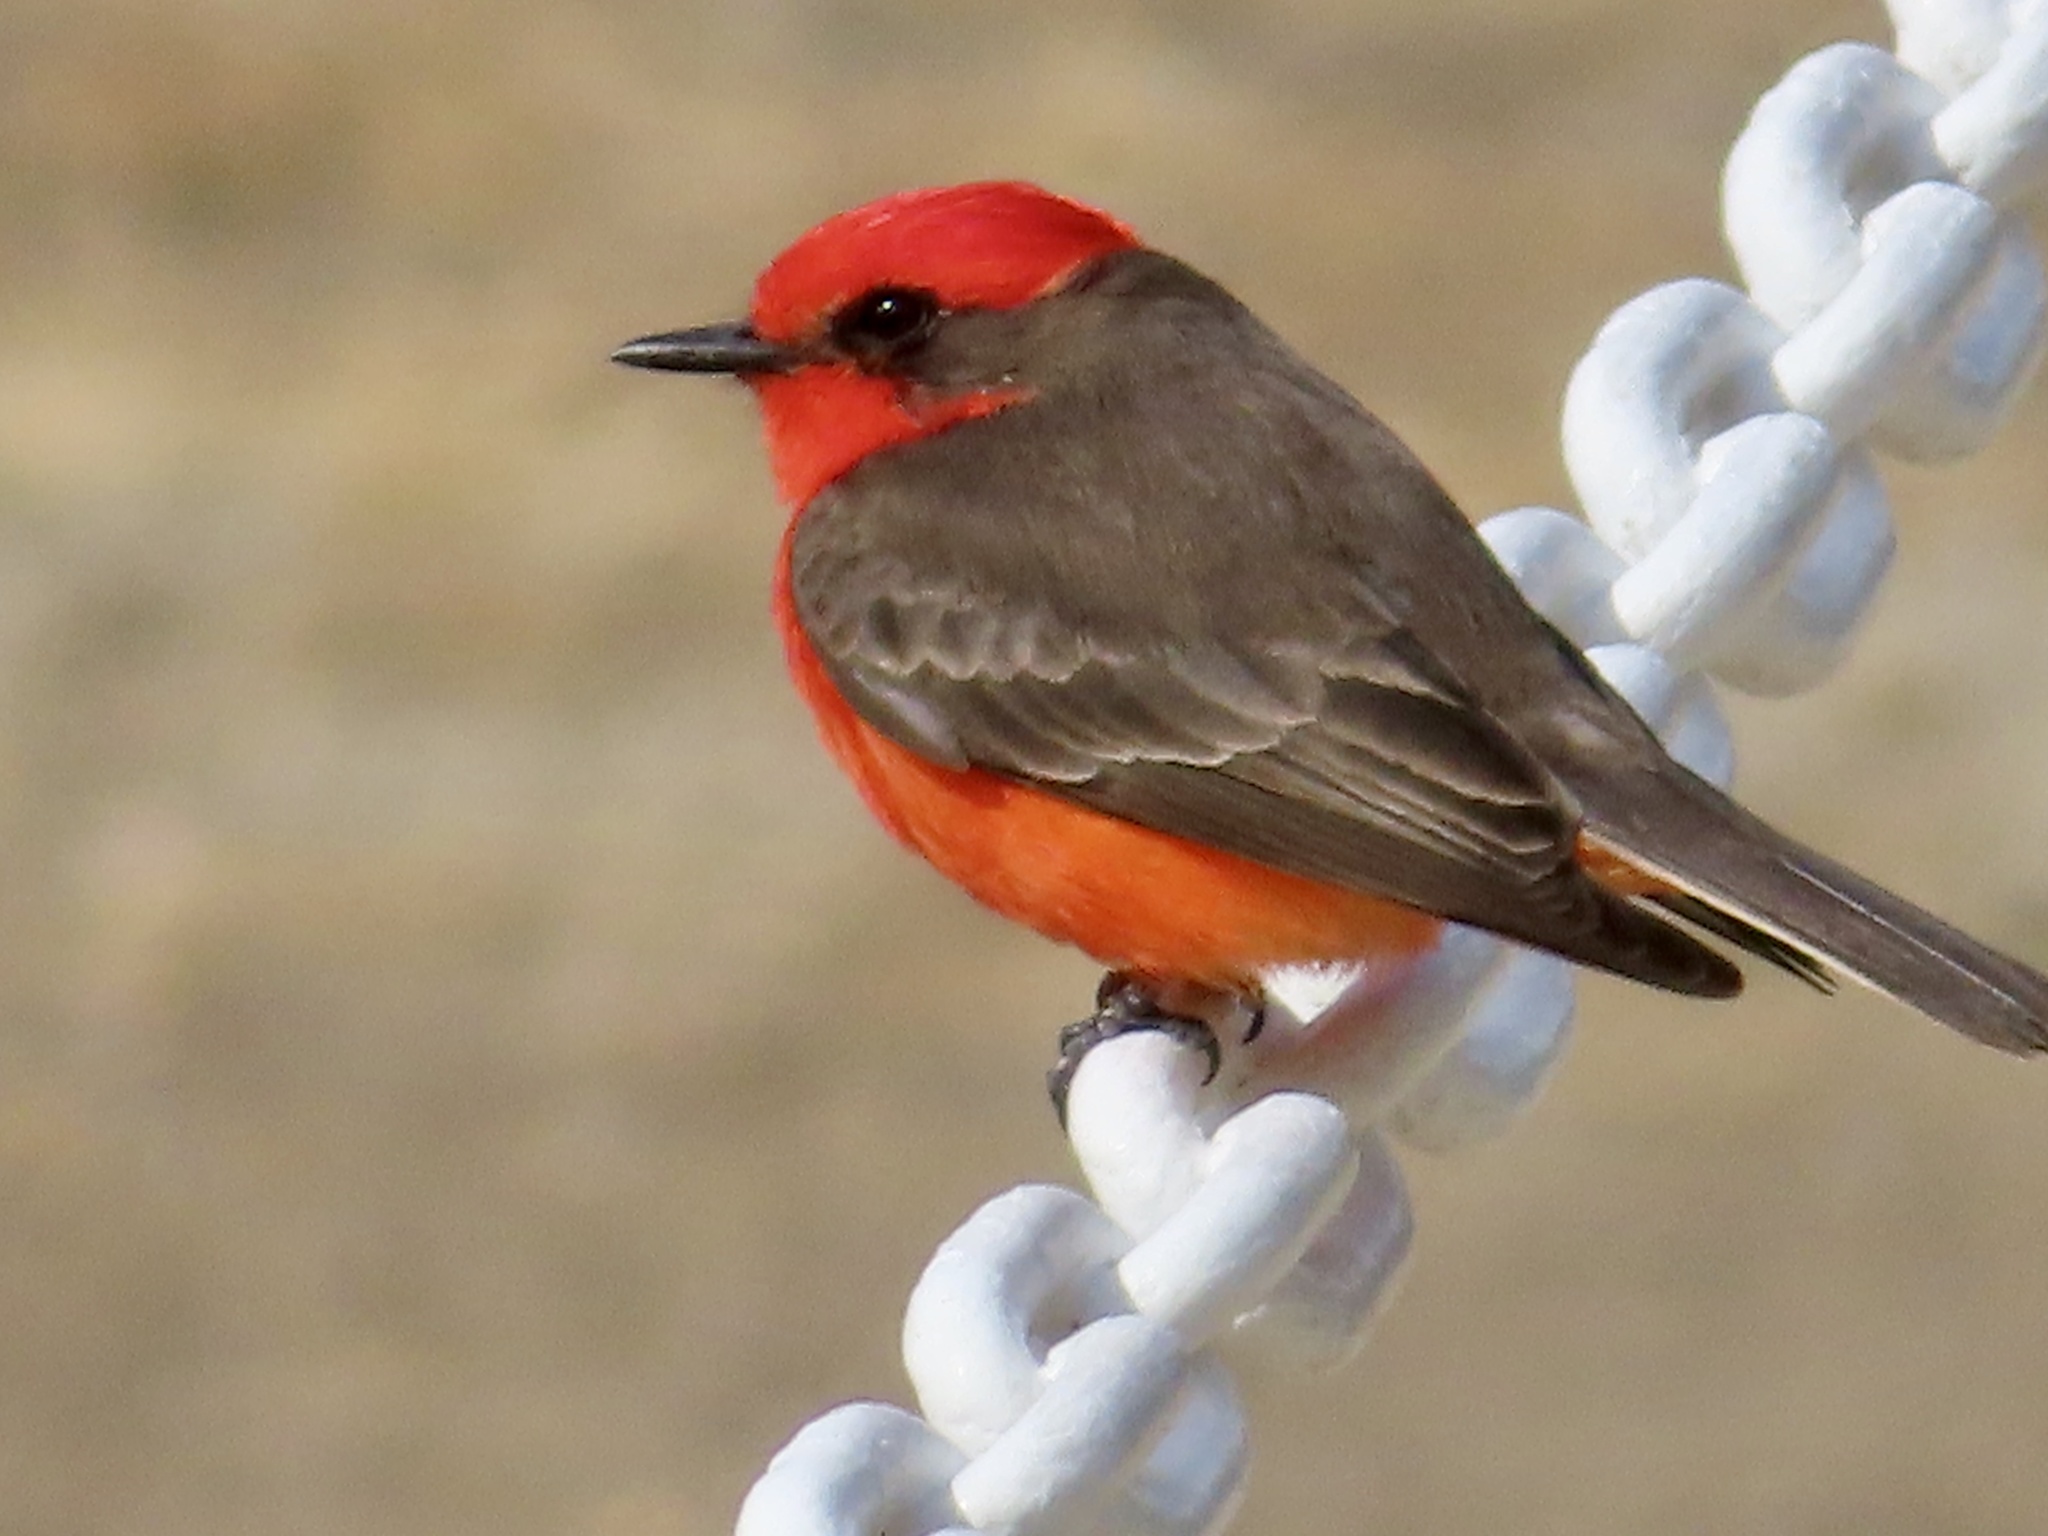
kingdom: Animalia
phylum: Chordata
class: Aves
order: Passeriformes
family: Tyrannidae
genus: Pyrocephalus
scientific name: Pyrocephalus rubinus
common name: Vermilion flycatcher
